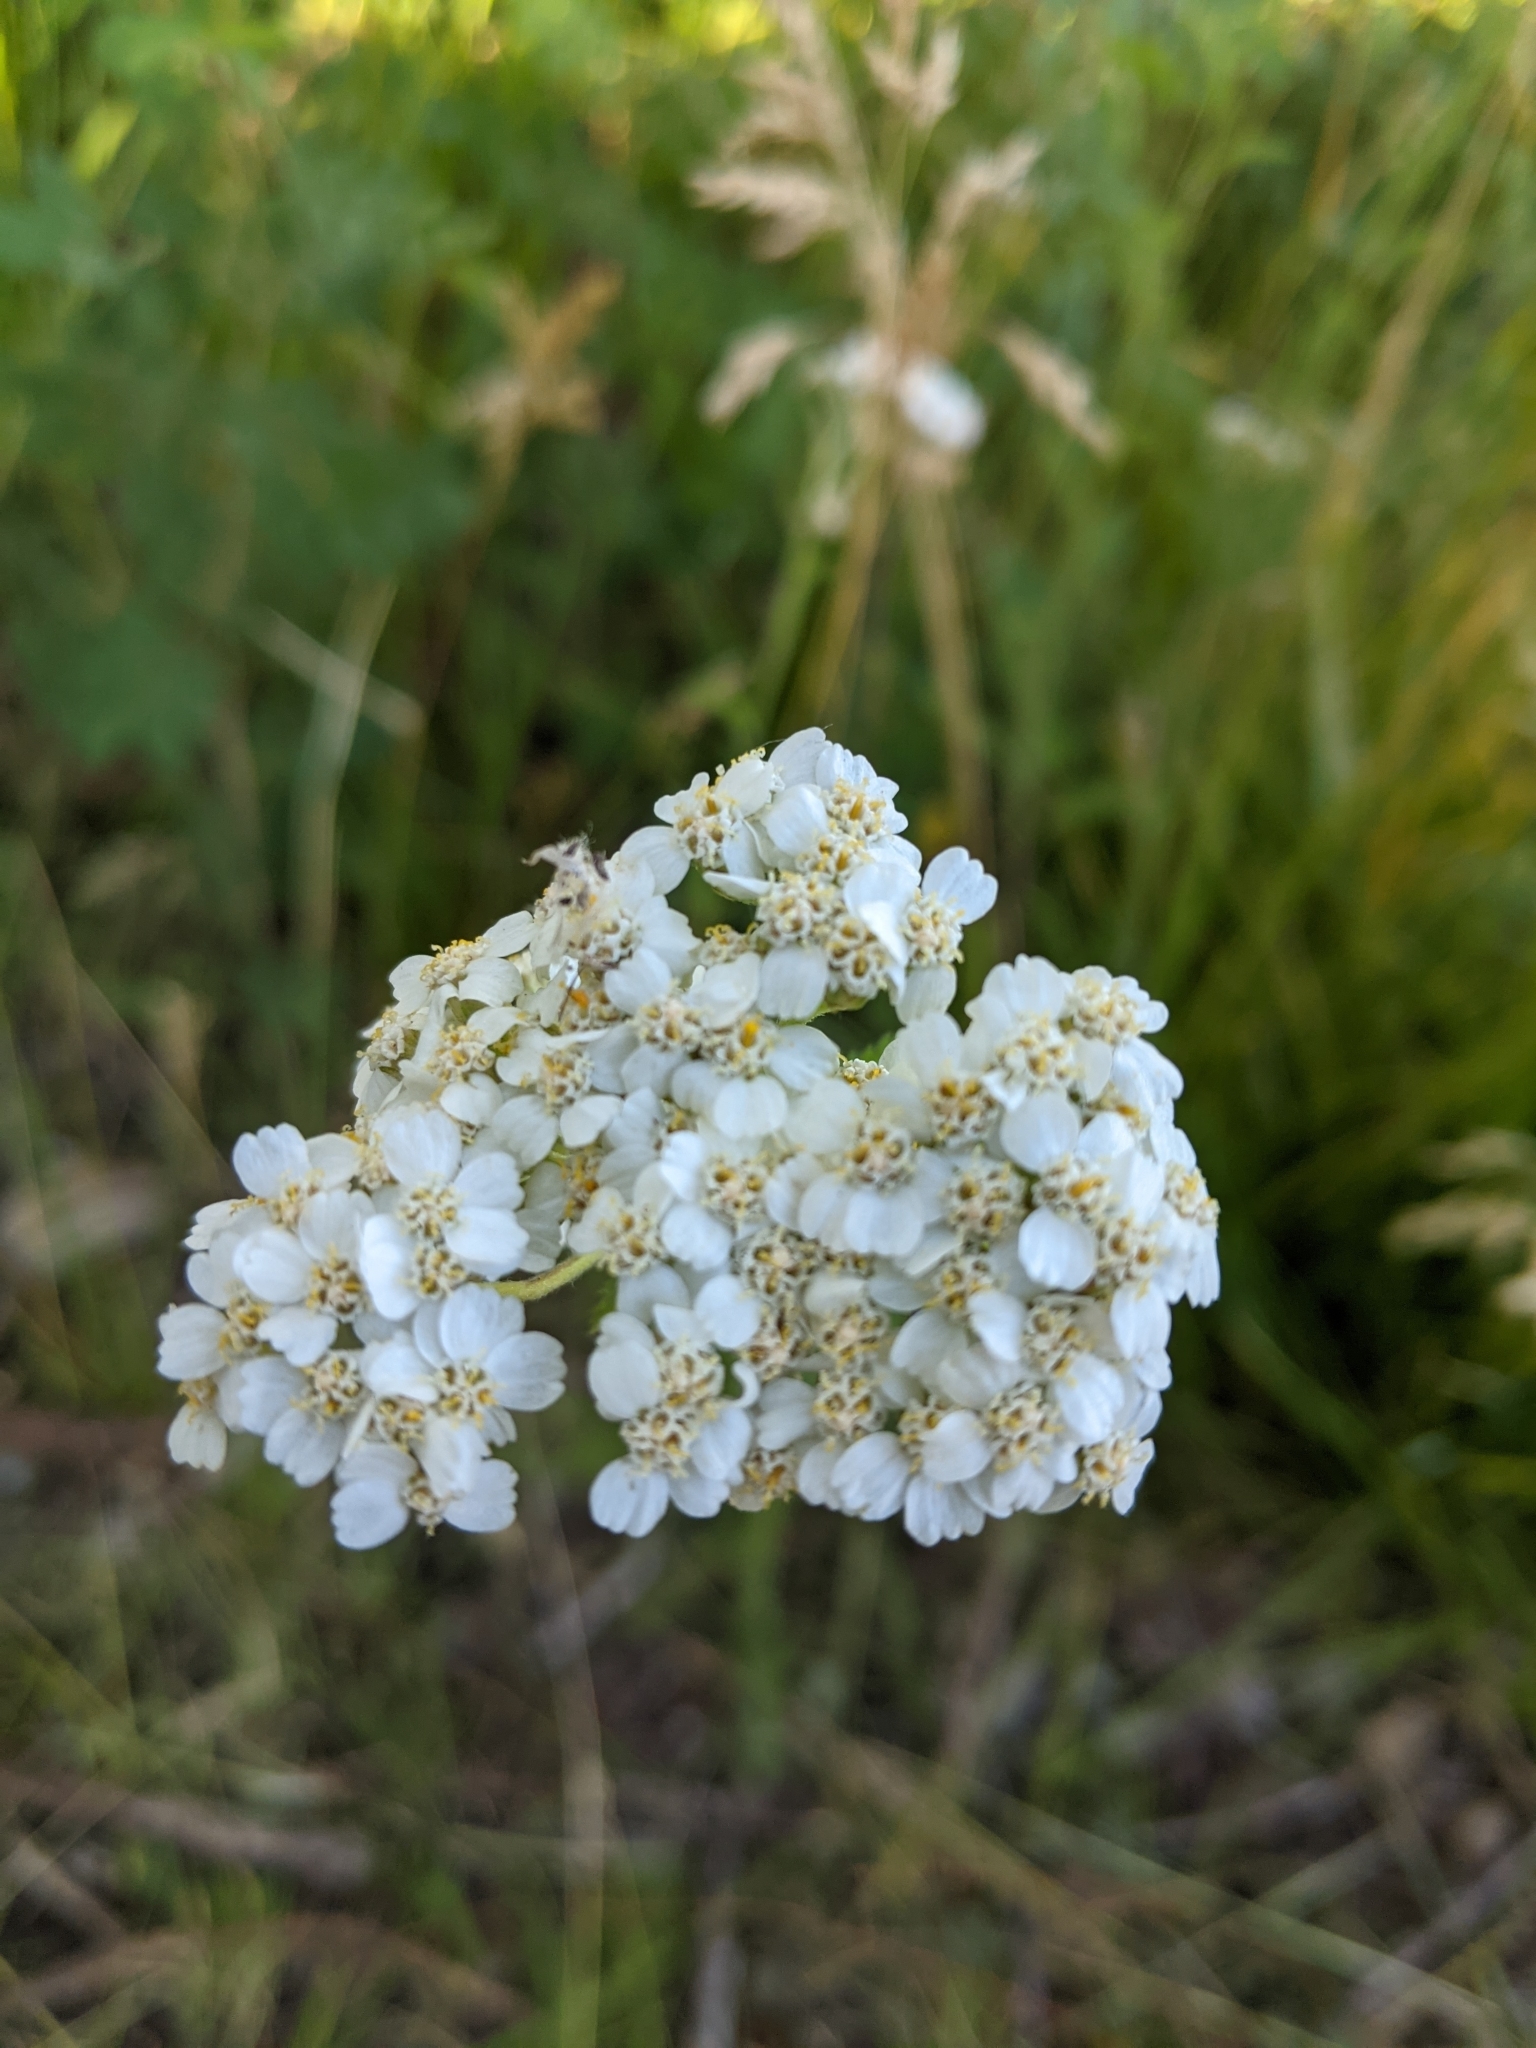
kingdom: Plantae
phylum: Tracheophyta
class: Magnoliopsida
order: Asterales
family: Asteraceae
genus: Achillea
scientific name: Achillea millefolium
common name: Yarrow
